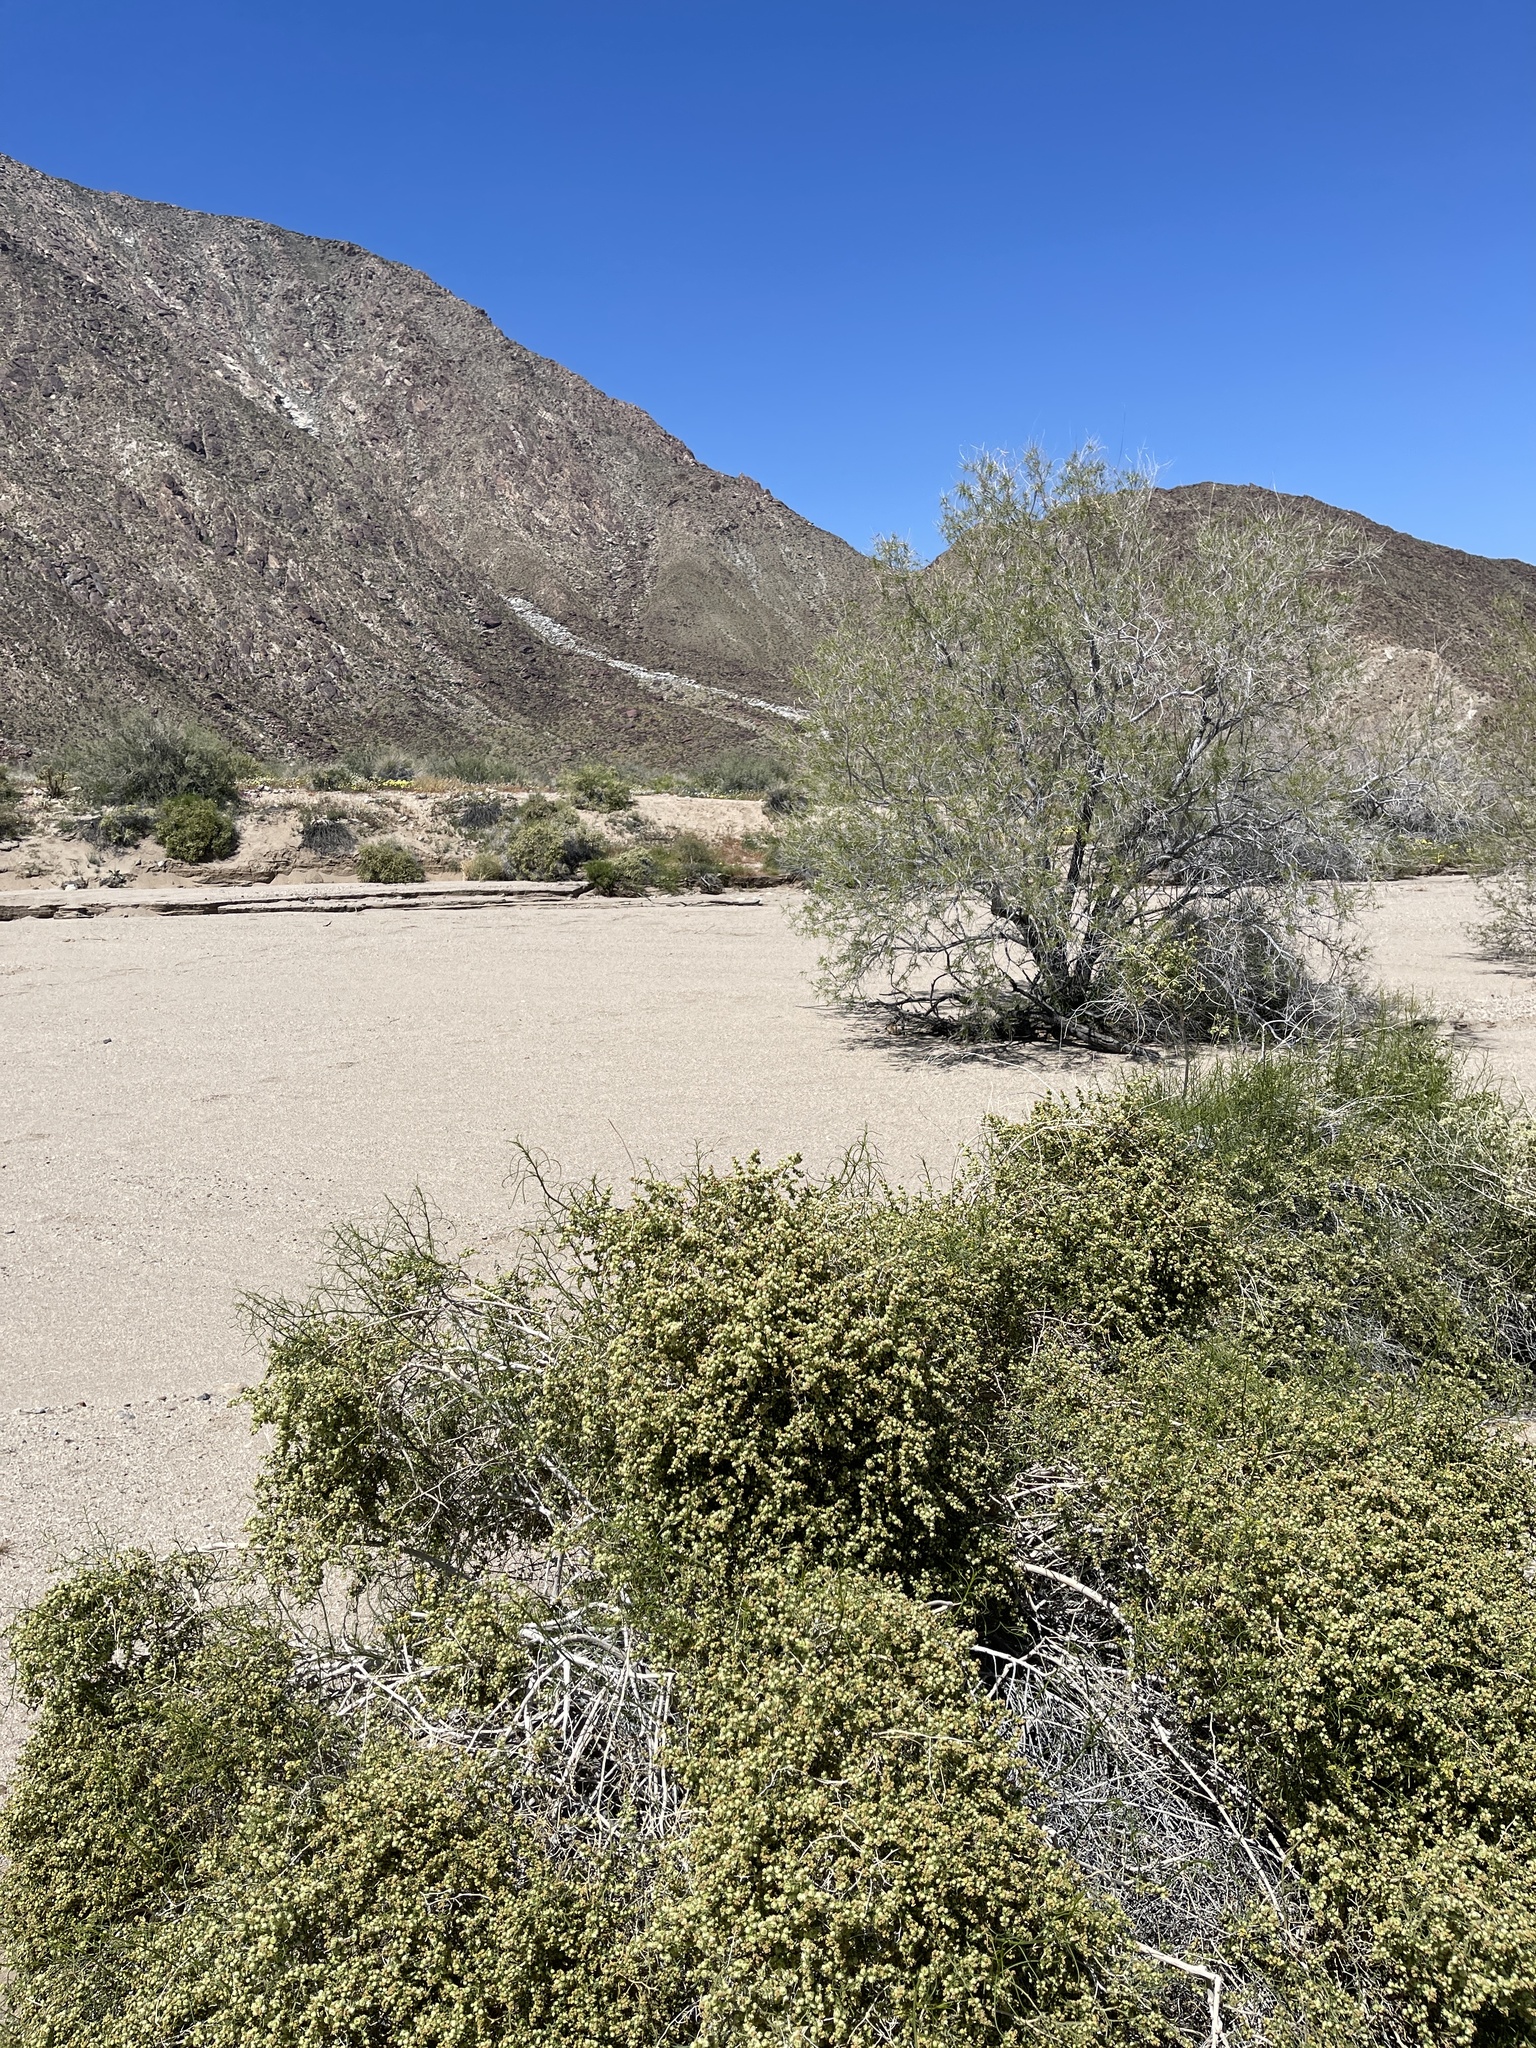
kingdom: Plantae
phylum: Tracheophyta
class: Magnoliopsida
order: Lamiales
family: Bignoniaceae
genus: Chilopsis
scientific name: Chilopsis linearis
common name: Desert-willow
